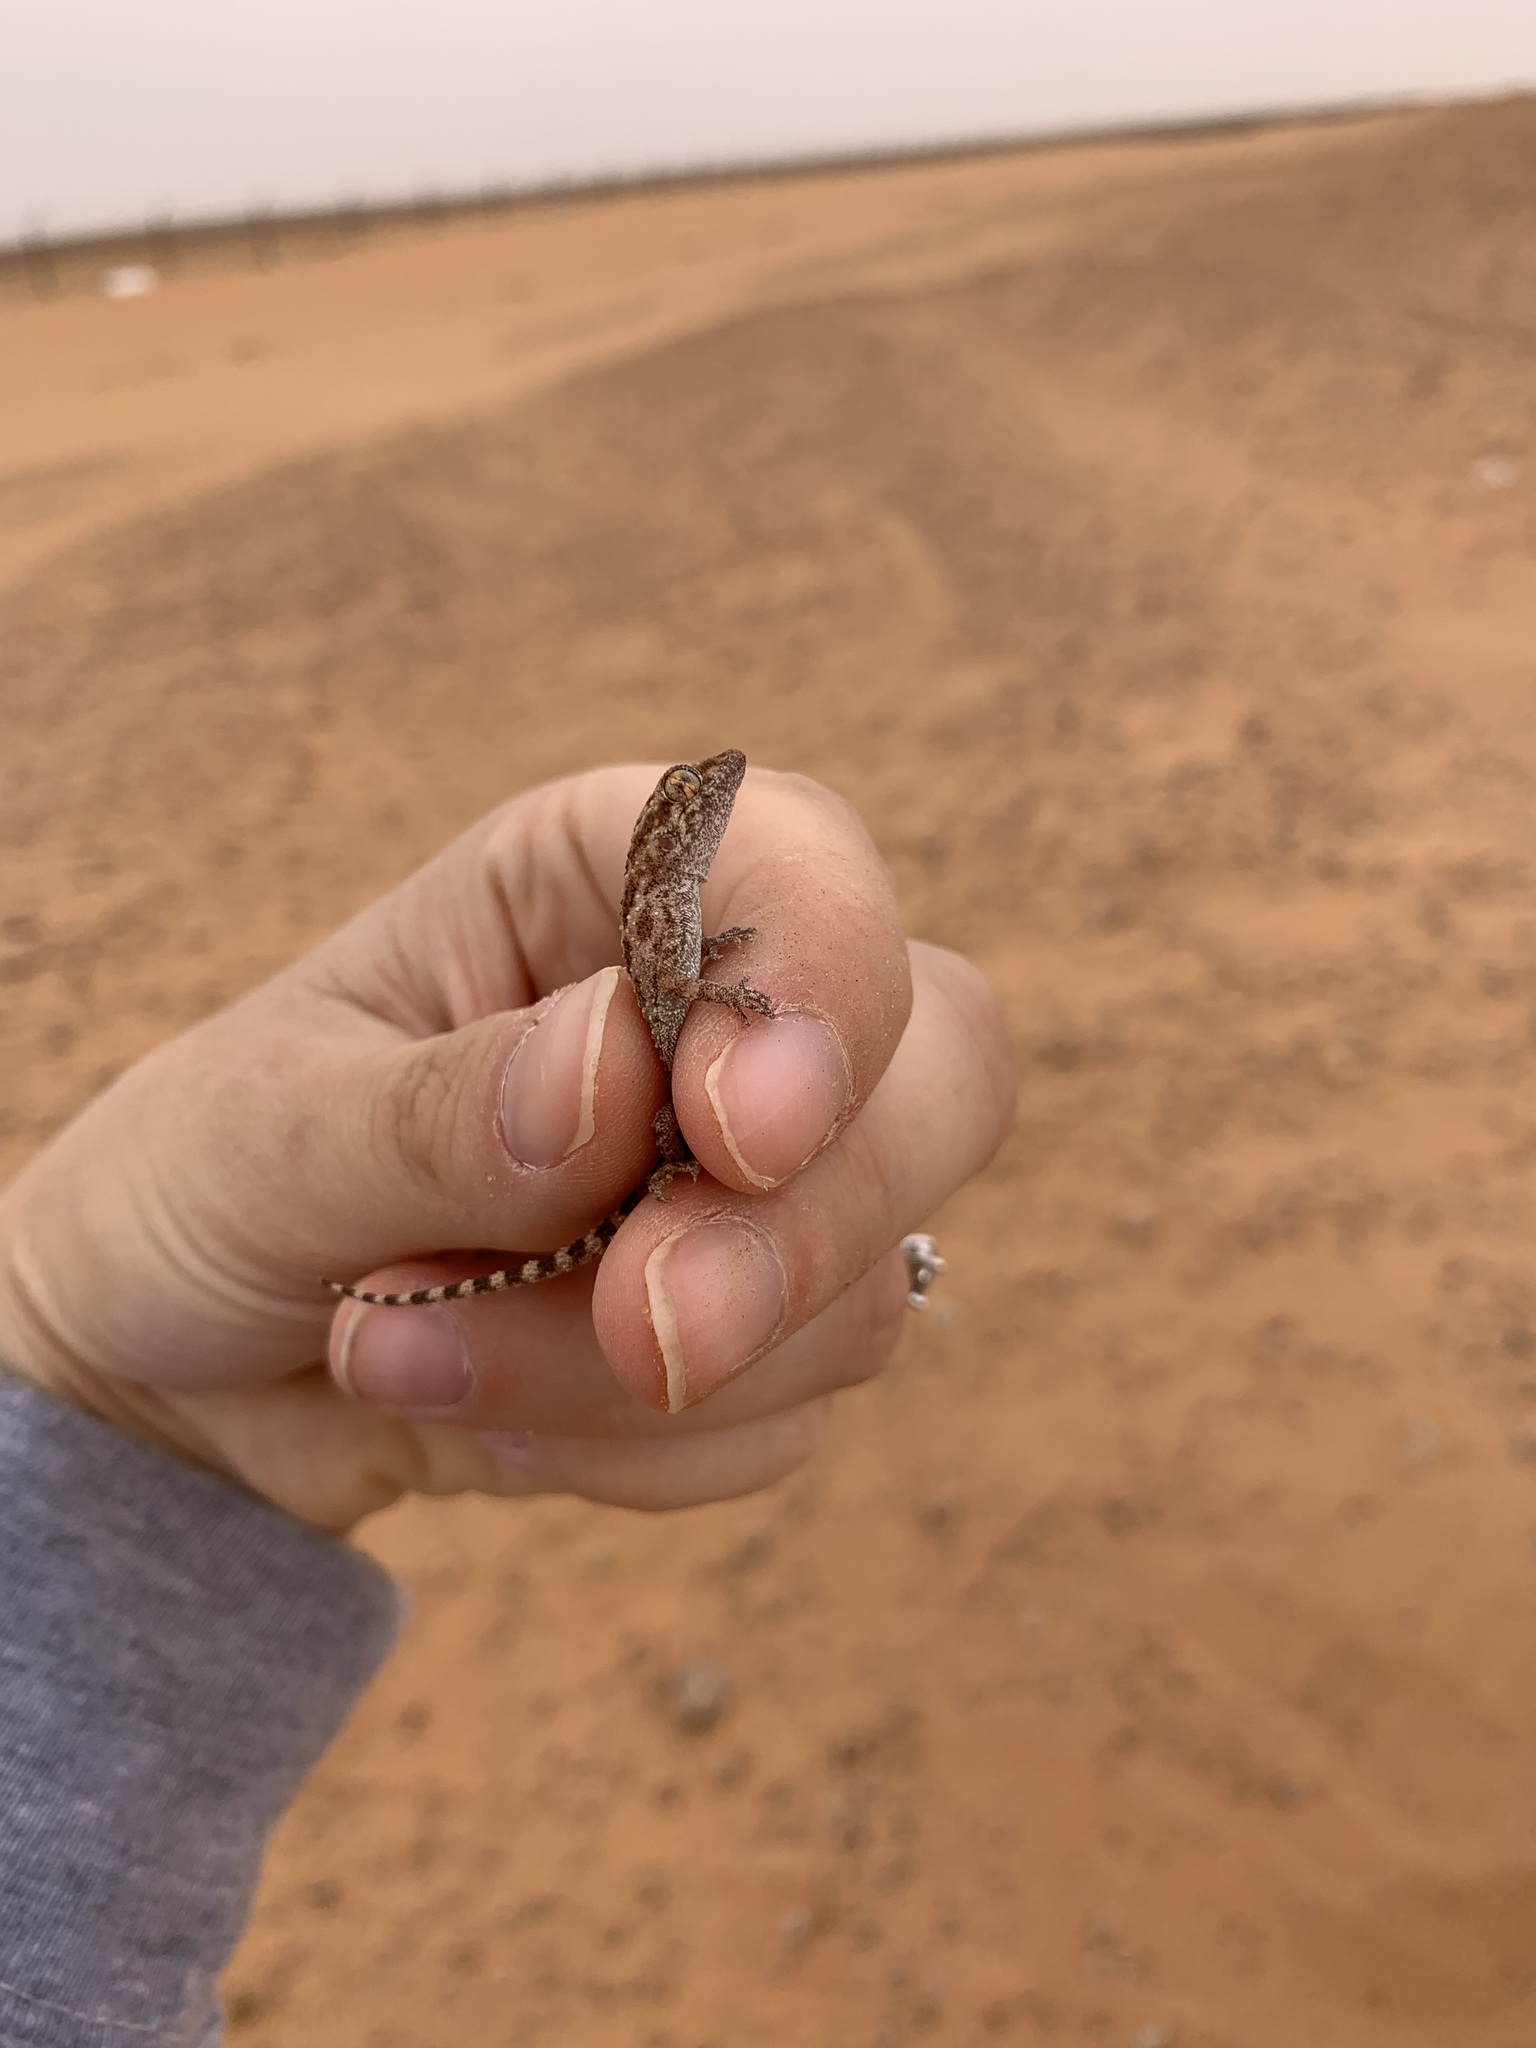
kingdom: Animalia
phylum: Chordata
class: Squamata
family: Gekkonidae
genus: Bunopus
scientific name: Bunopus tuberculatus
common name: Southern tuberculated gecko
